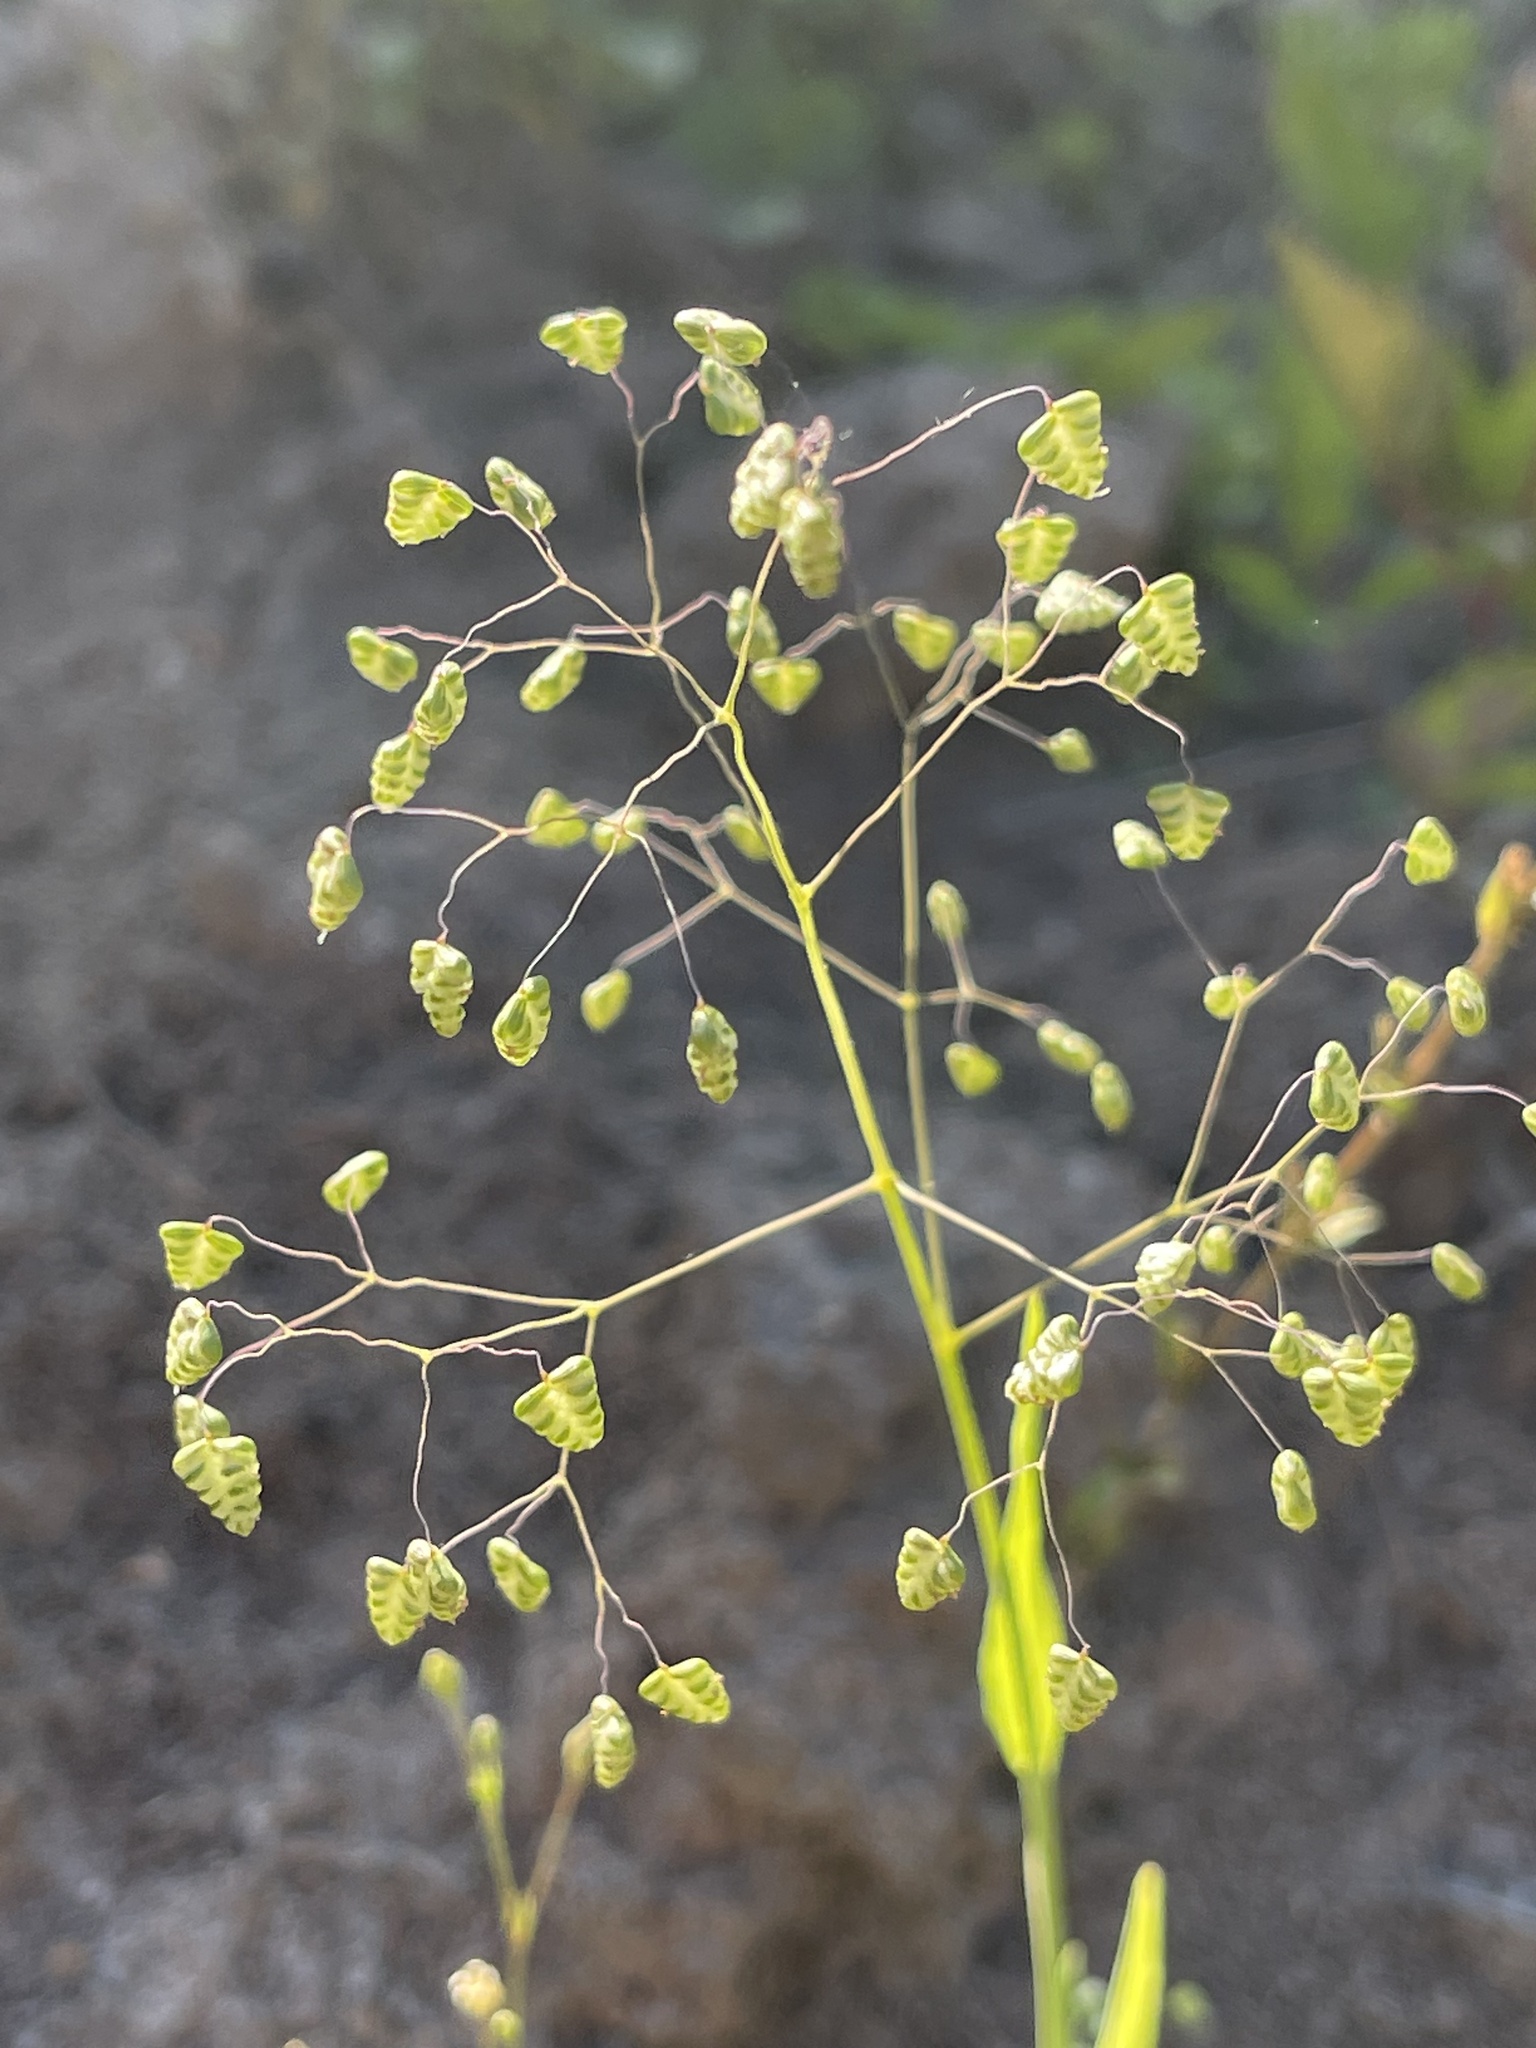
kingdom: Plantae
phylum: Tracheophyta
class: Liliopsida
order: Poales
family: Poaceae
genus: Briza
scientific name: Briza minor
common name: Lesser quaking-grass
